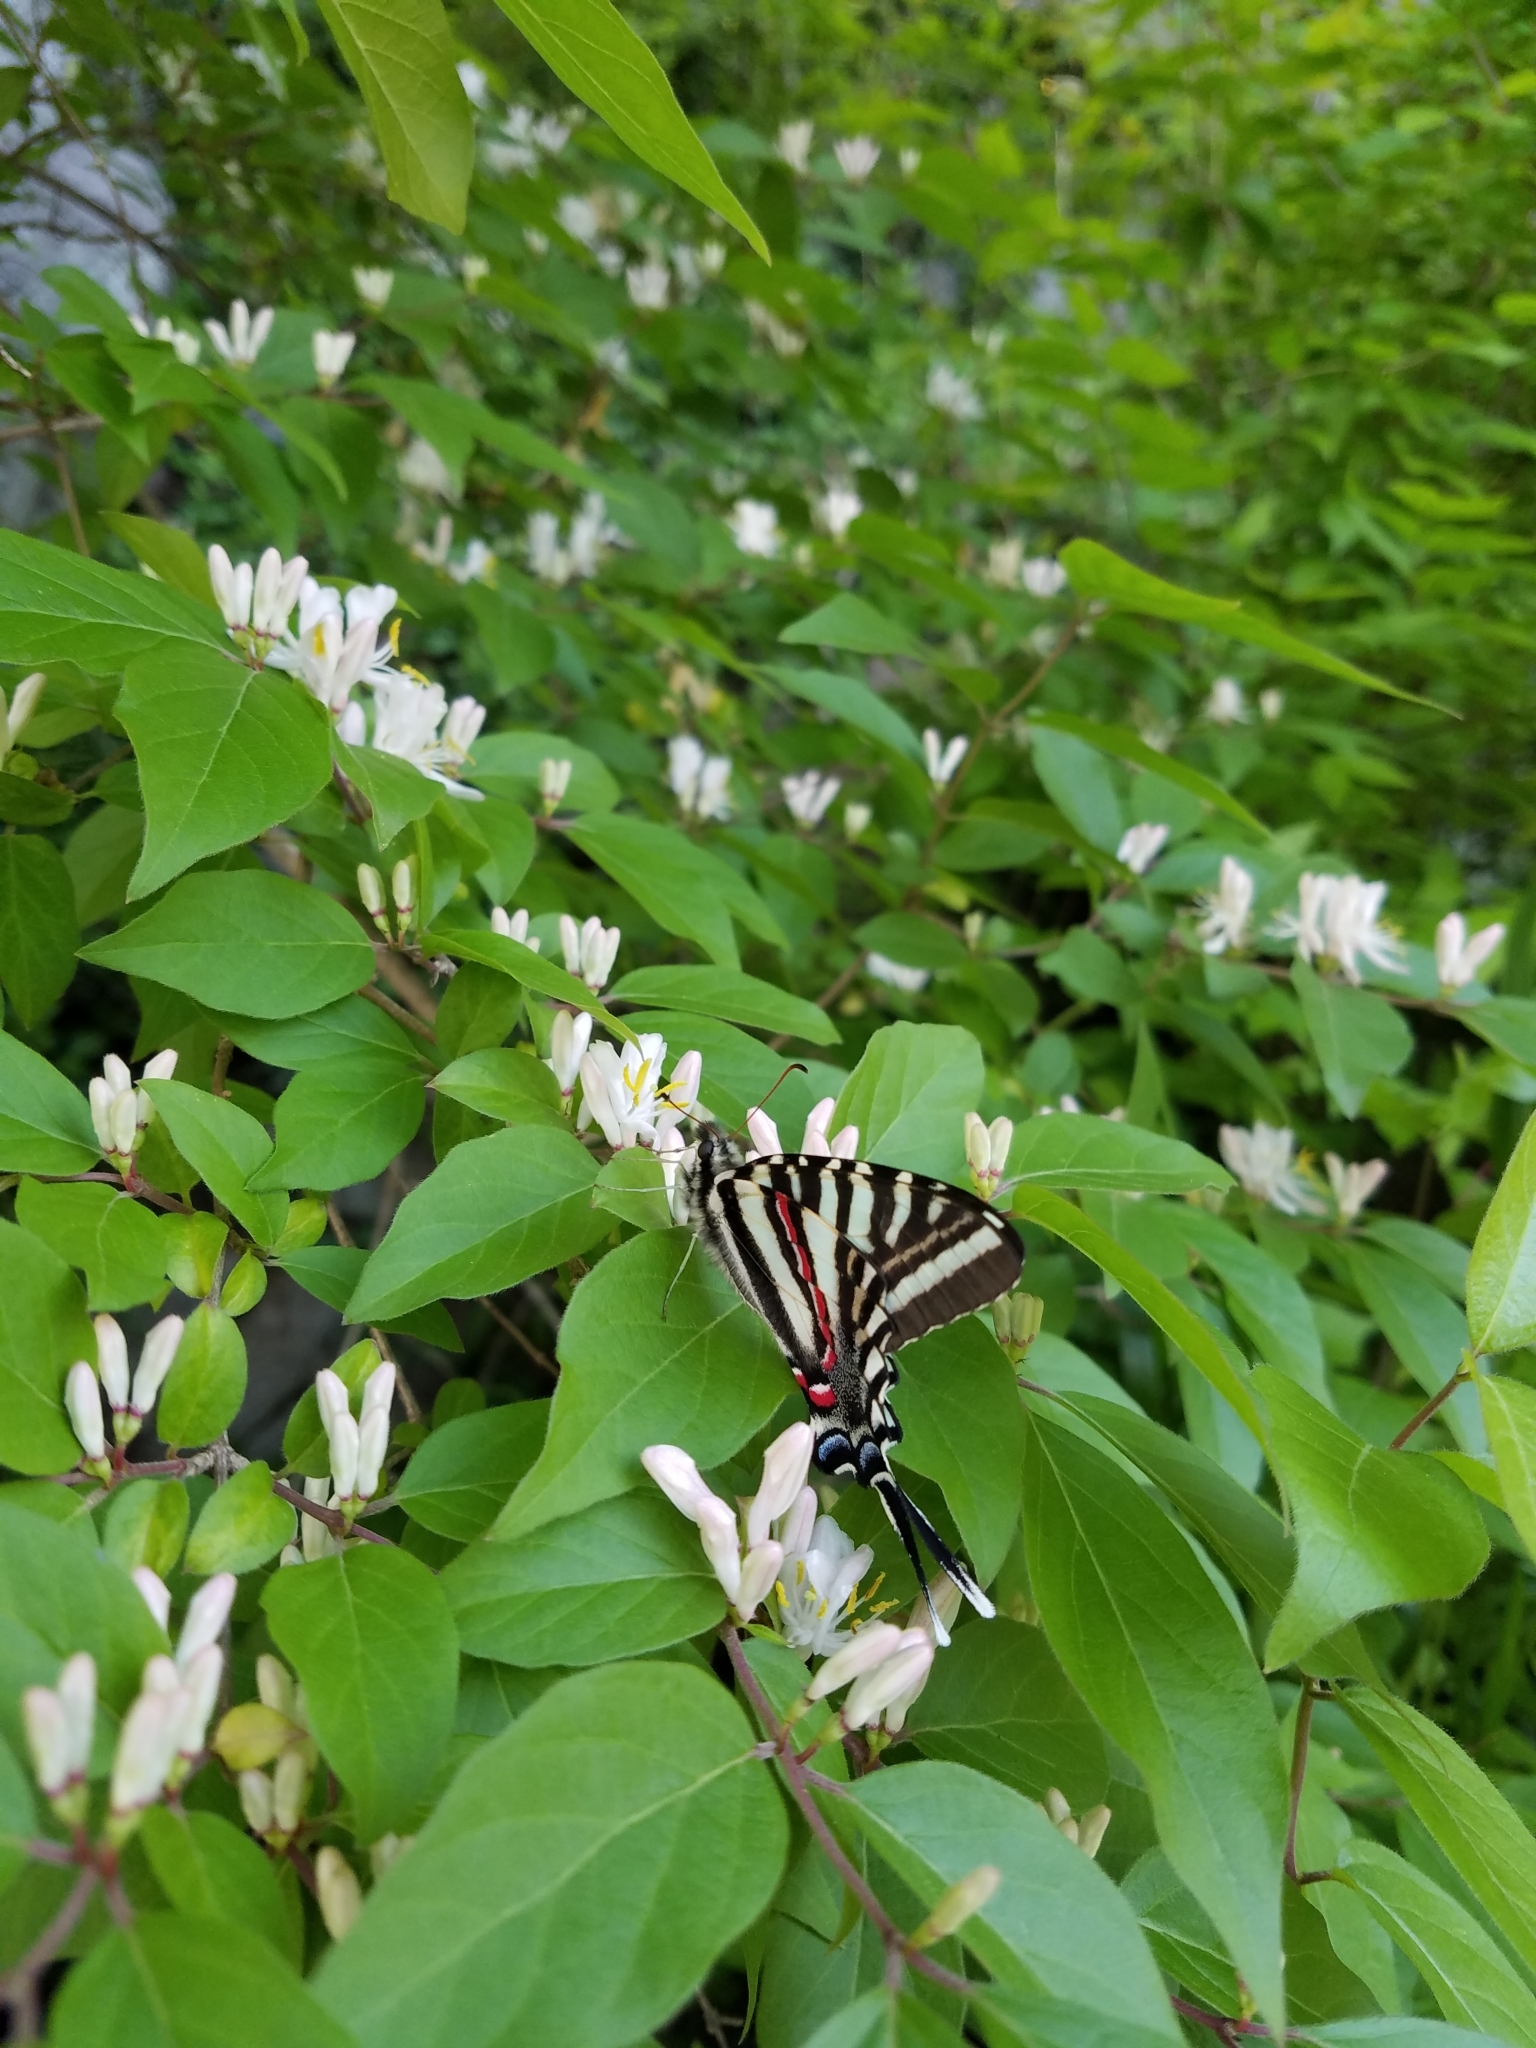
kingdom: Animalia
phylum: Arthropoda
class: Insecta
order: Lepidoptera
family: Papilionidae
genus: Protographium
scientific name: Protographium marcellus
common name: Zebra swallowtail
